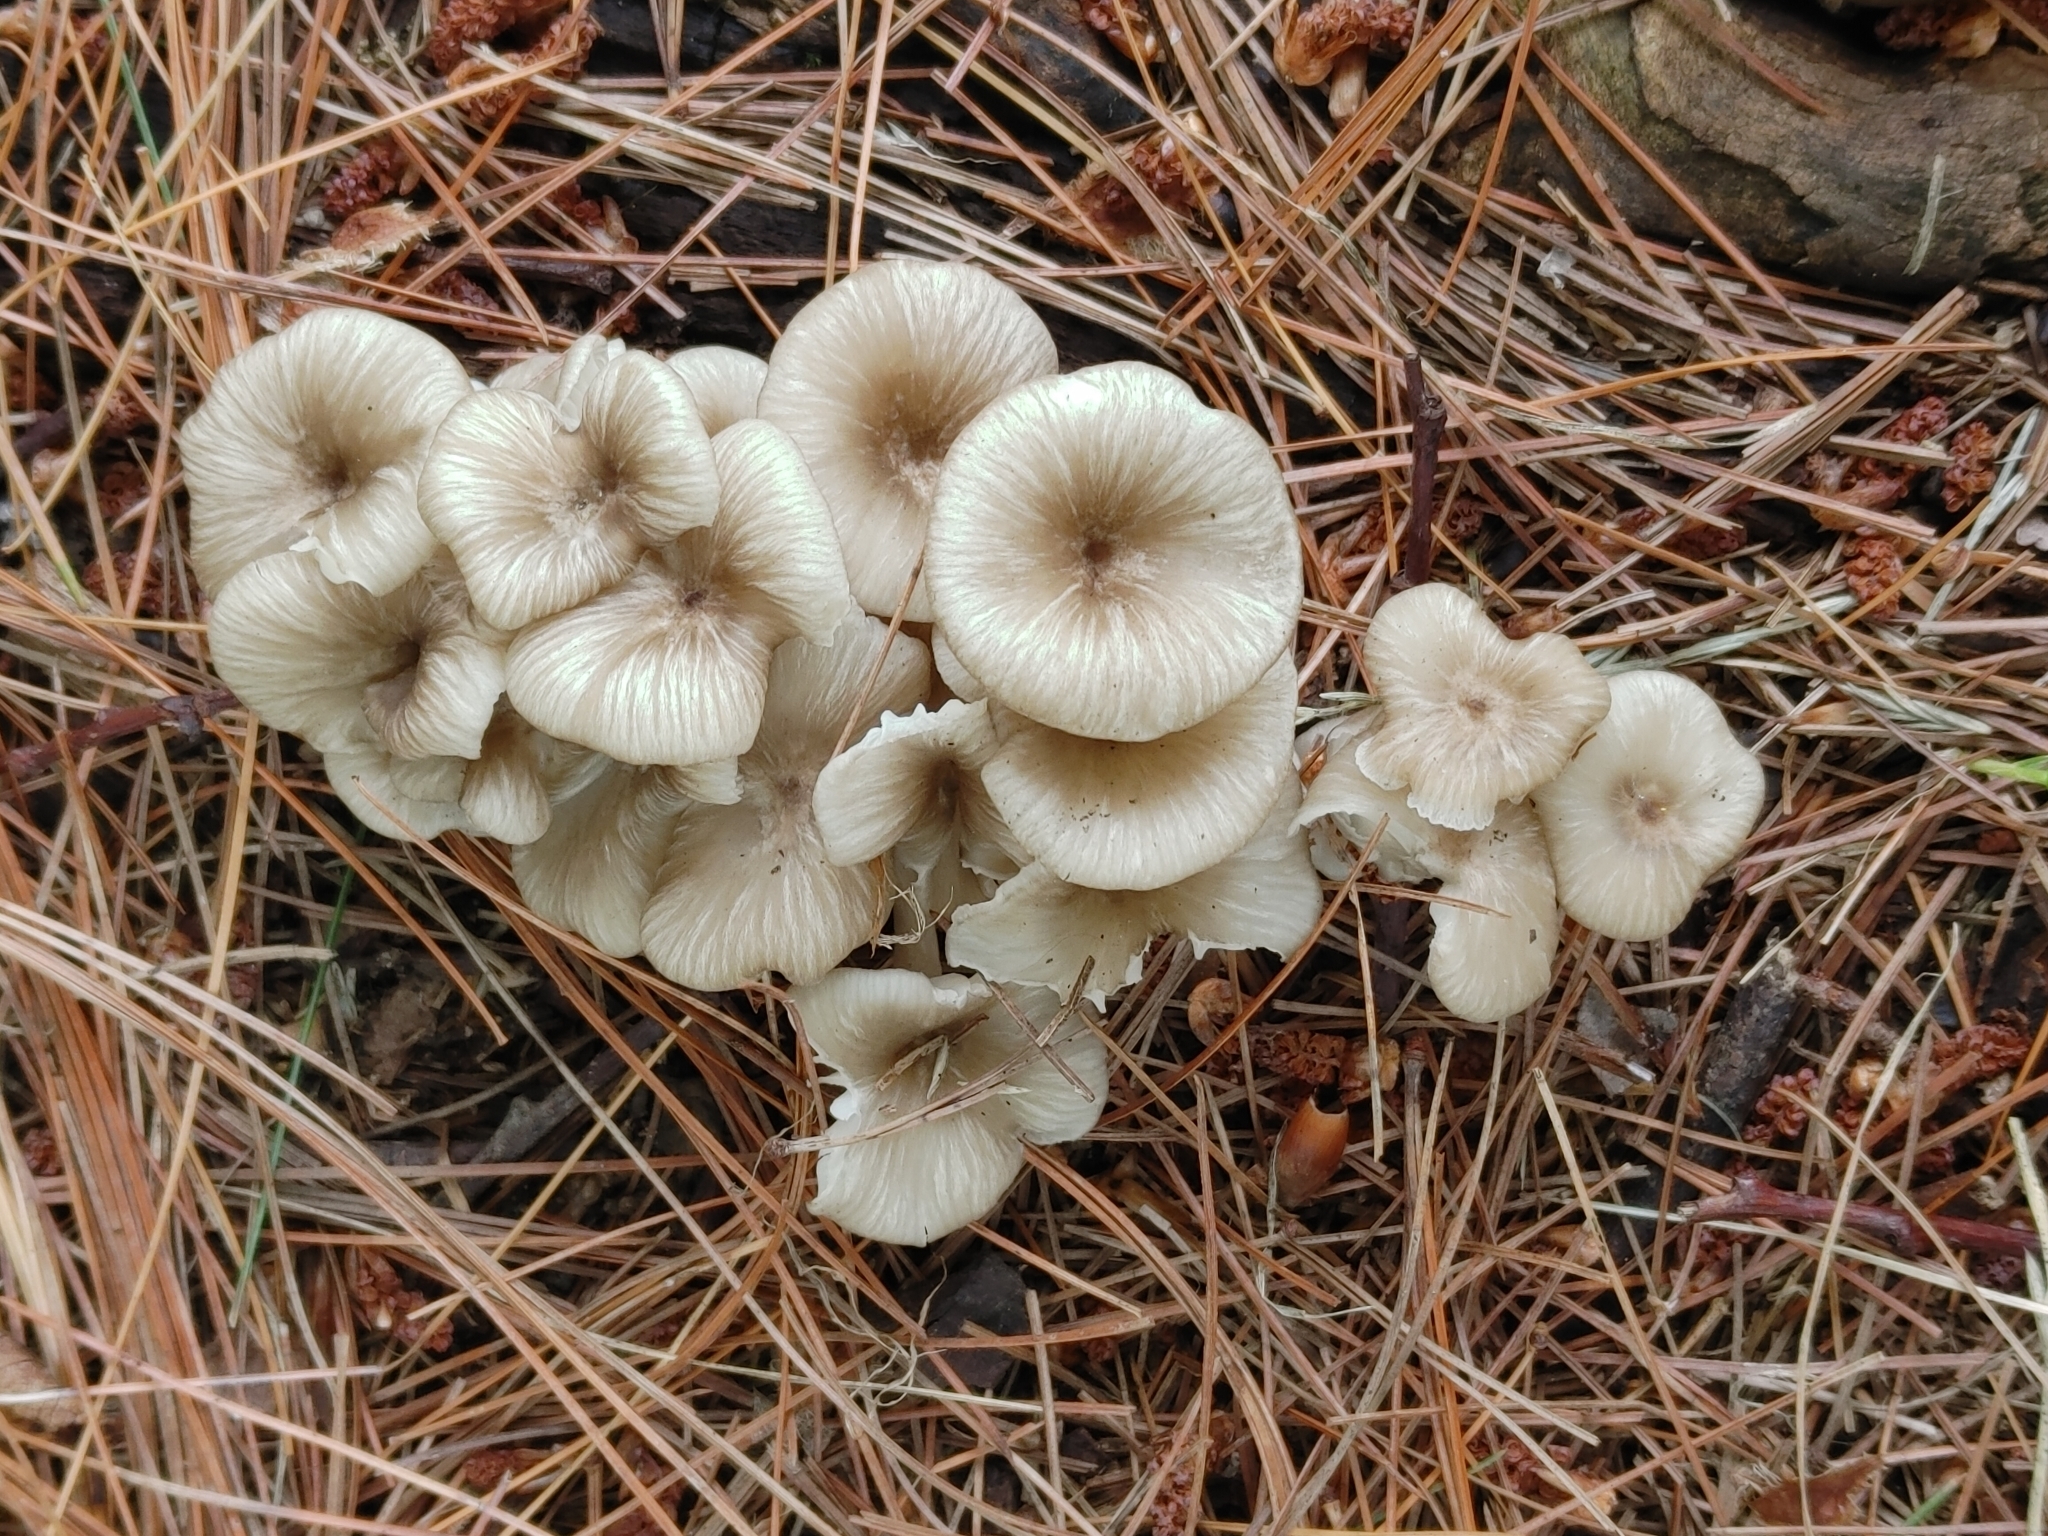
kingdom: Fungi
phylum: Basidiomycota
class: Agaricomycetes
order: Agaricales
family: Marasmiaceae
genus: Clitocybula
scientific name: Clitocybula lacerata
